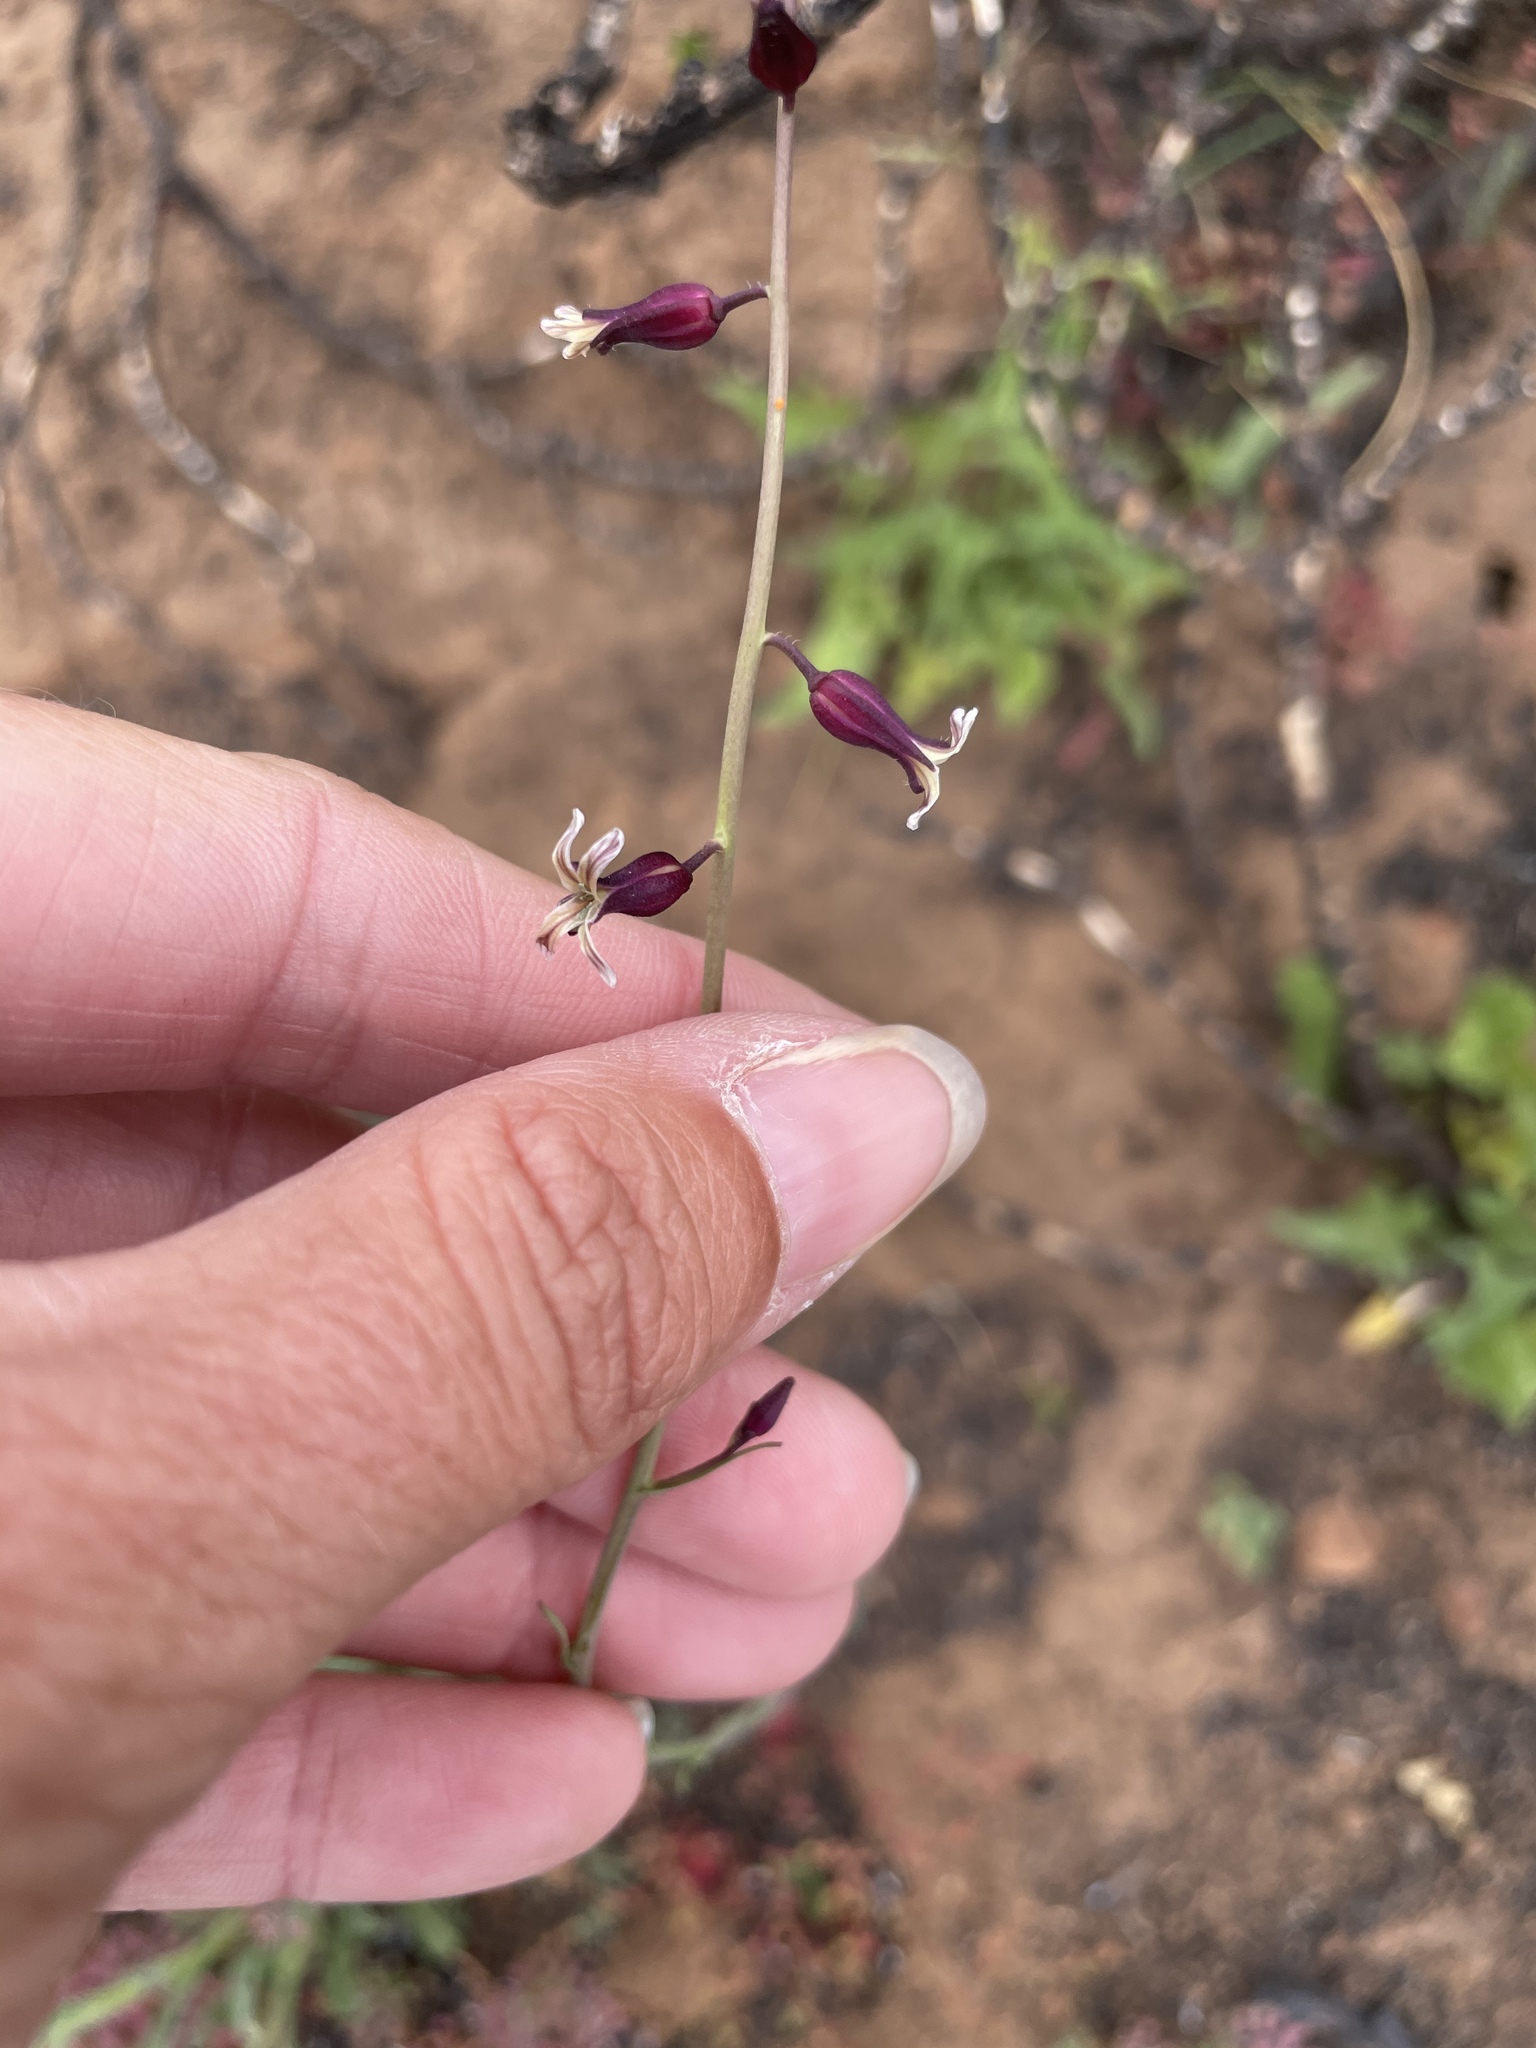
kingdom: Plantae
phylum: Tracheophyta
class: Magnoliopsida
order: Brassicales
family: Brassicaceae
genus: Streptanthus
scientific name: Streptanthus heterophyllus
